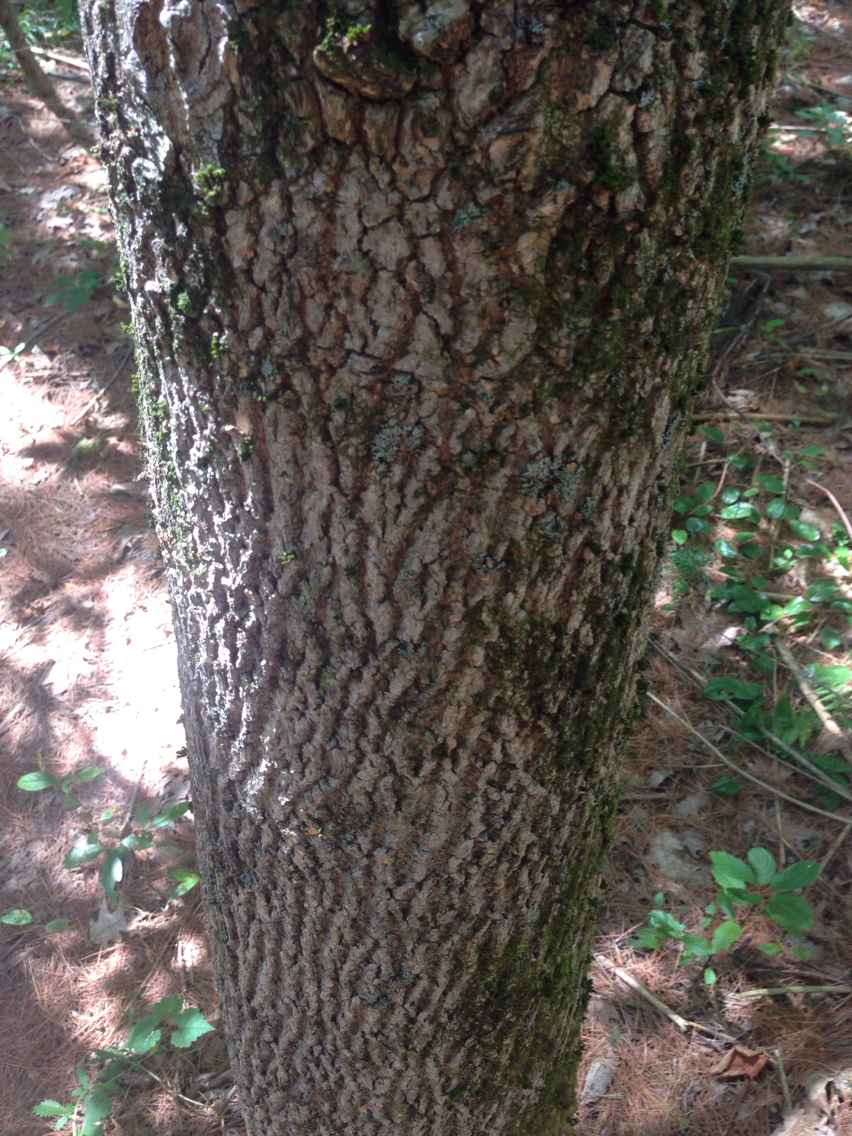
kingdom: Plantae
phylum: Tracheophyta
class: Magnoliopsida
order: Lamiales
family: Oleaceae
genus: Fraxinus
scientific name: Fraxinus americana
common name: White ash
